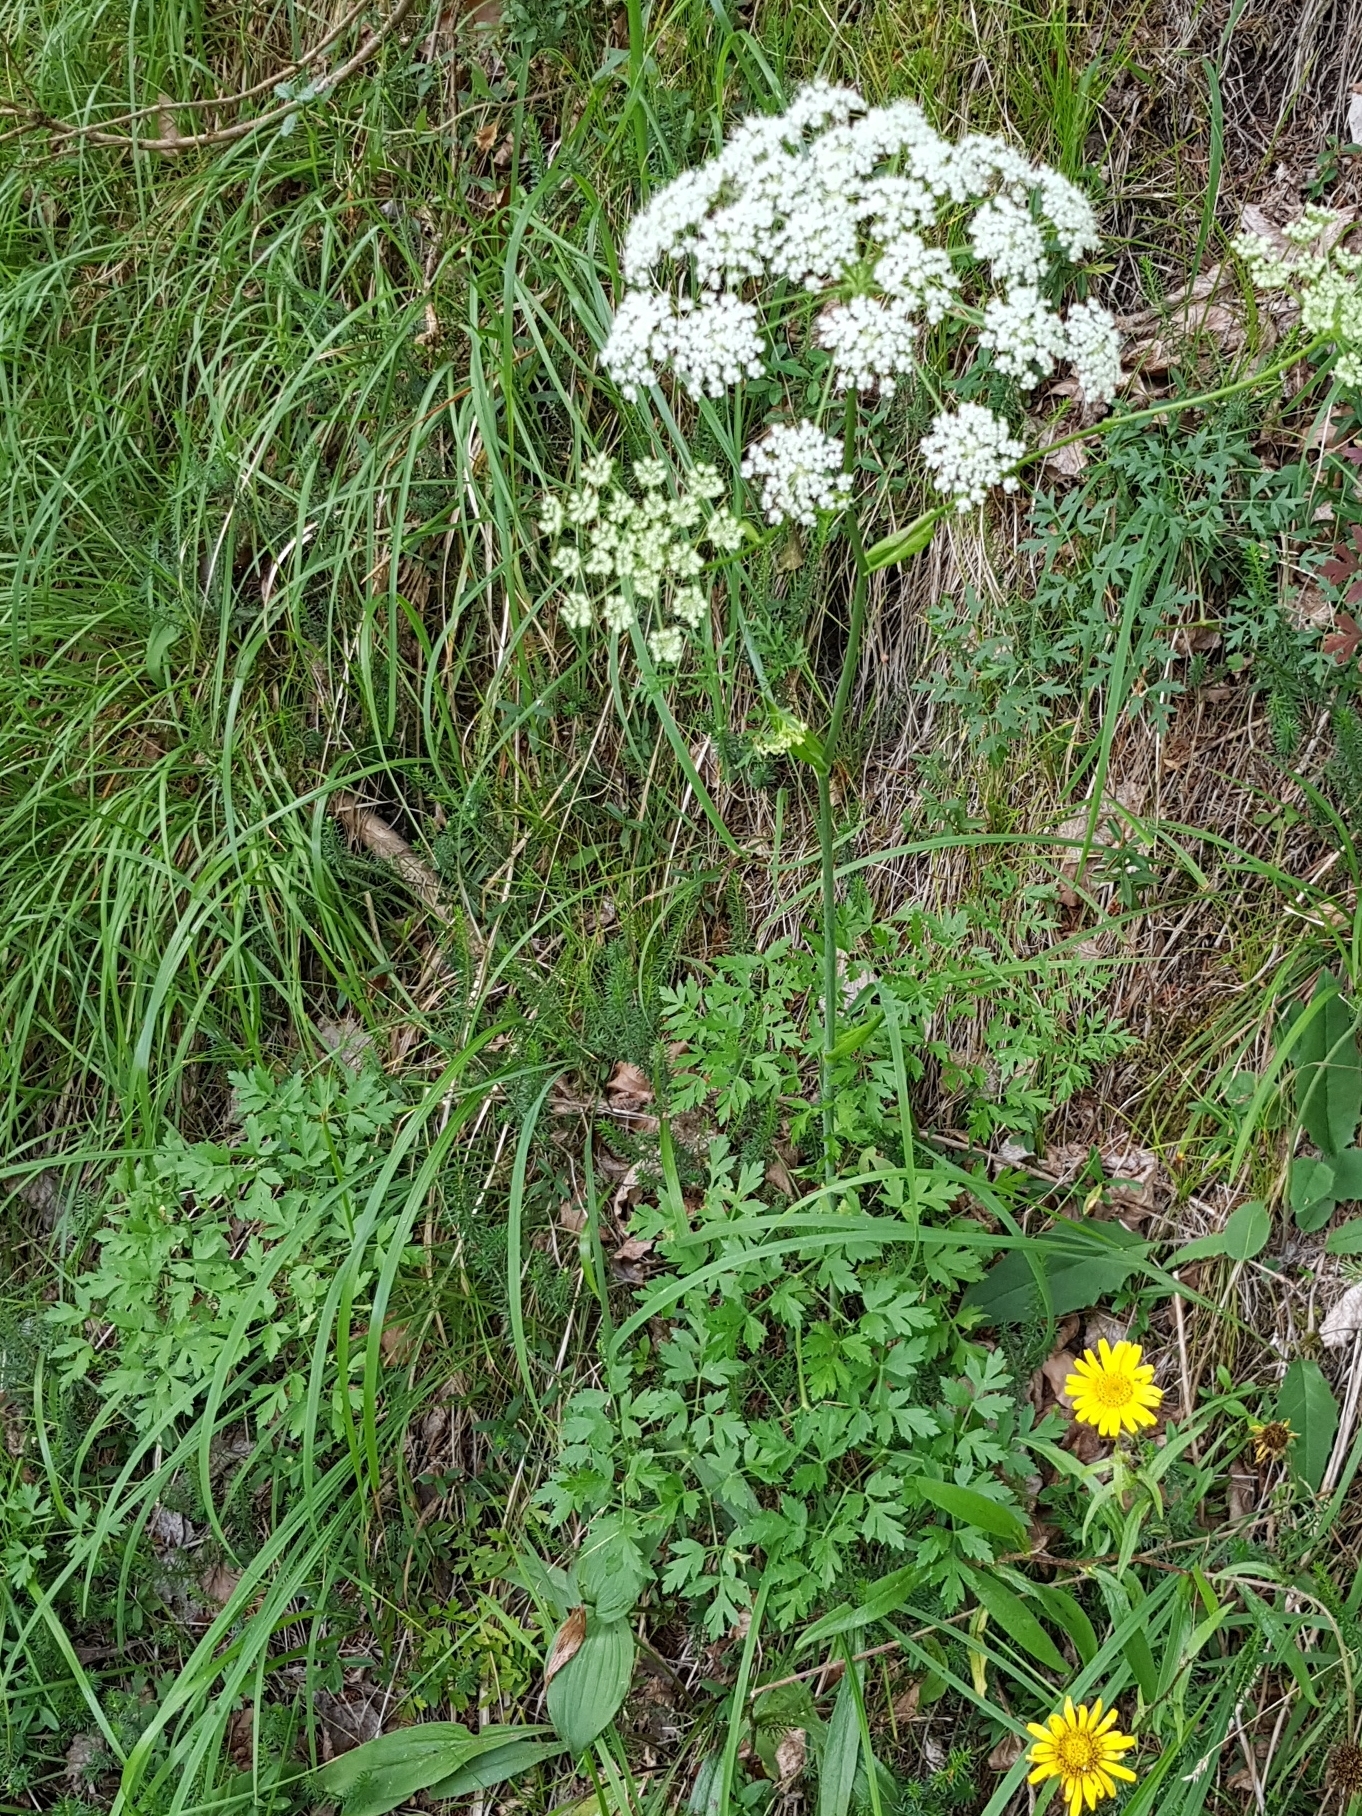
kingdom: Plantae
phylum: Tracheophyta
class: Magnoliopsida
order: Apiales
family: Apiaceae
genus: Oreoselinum
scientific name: Oreoselinum nigrum
